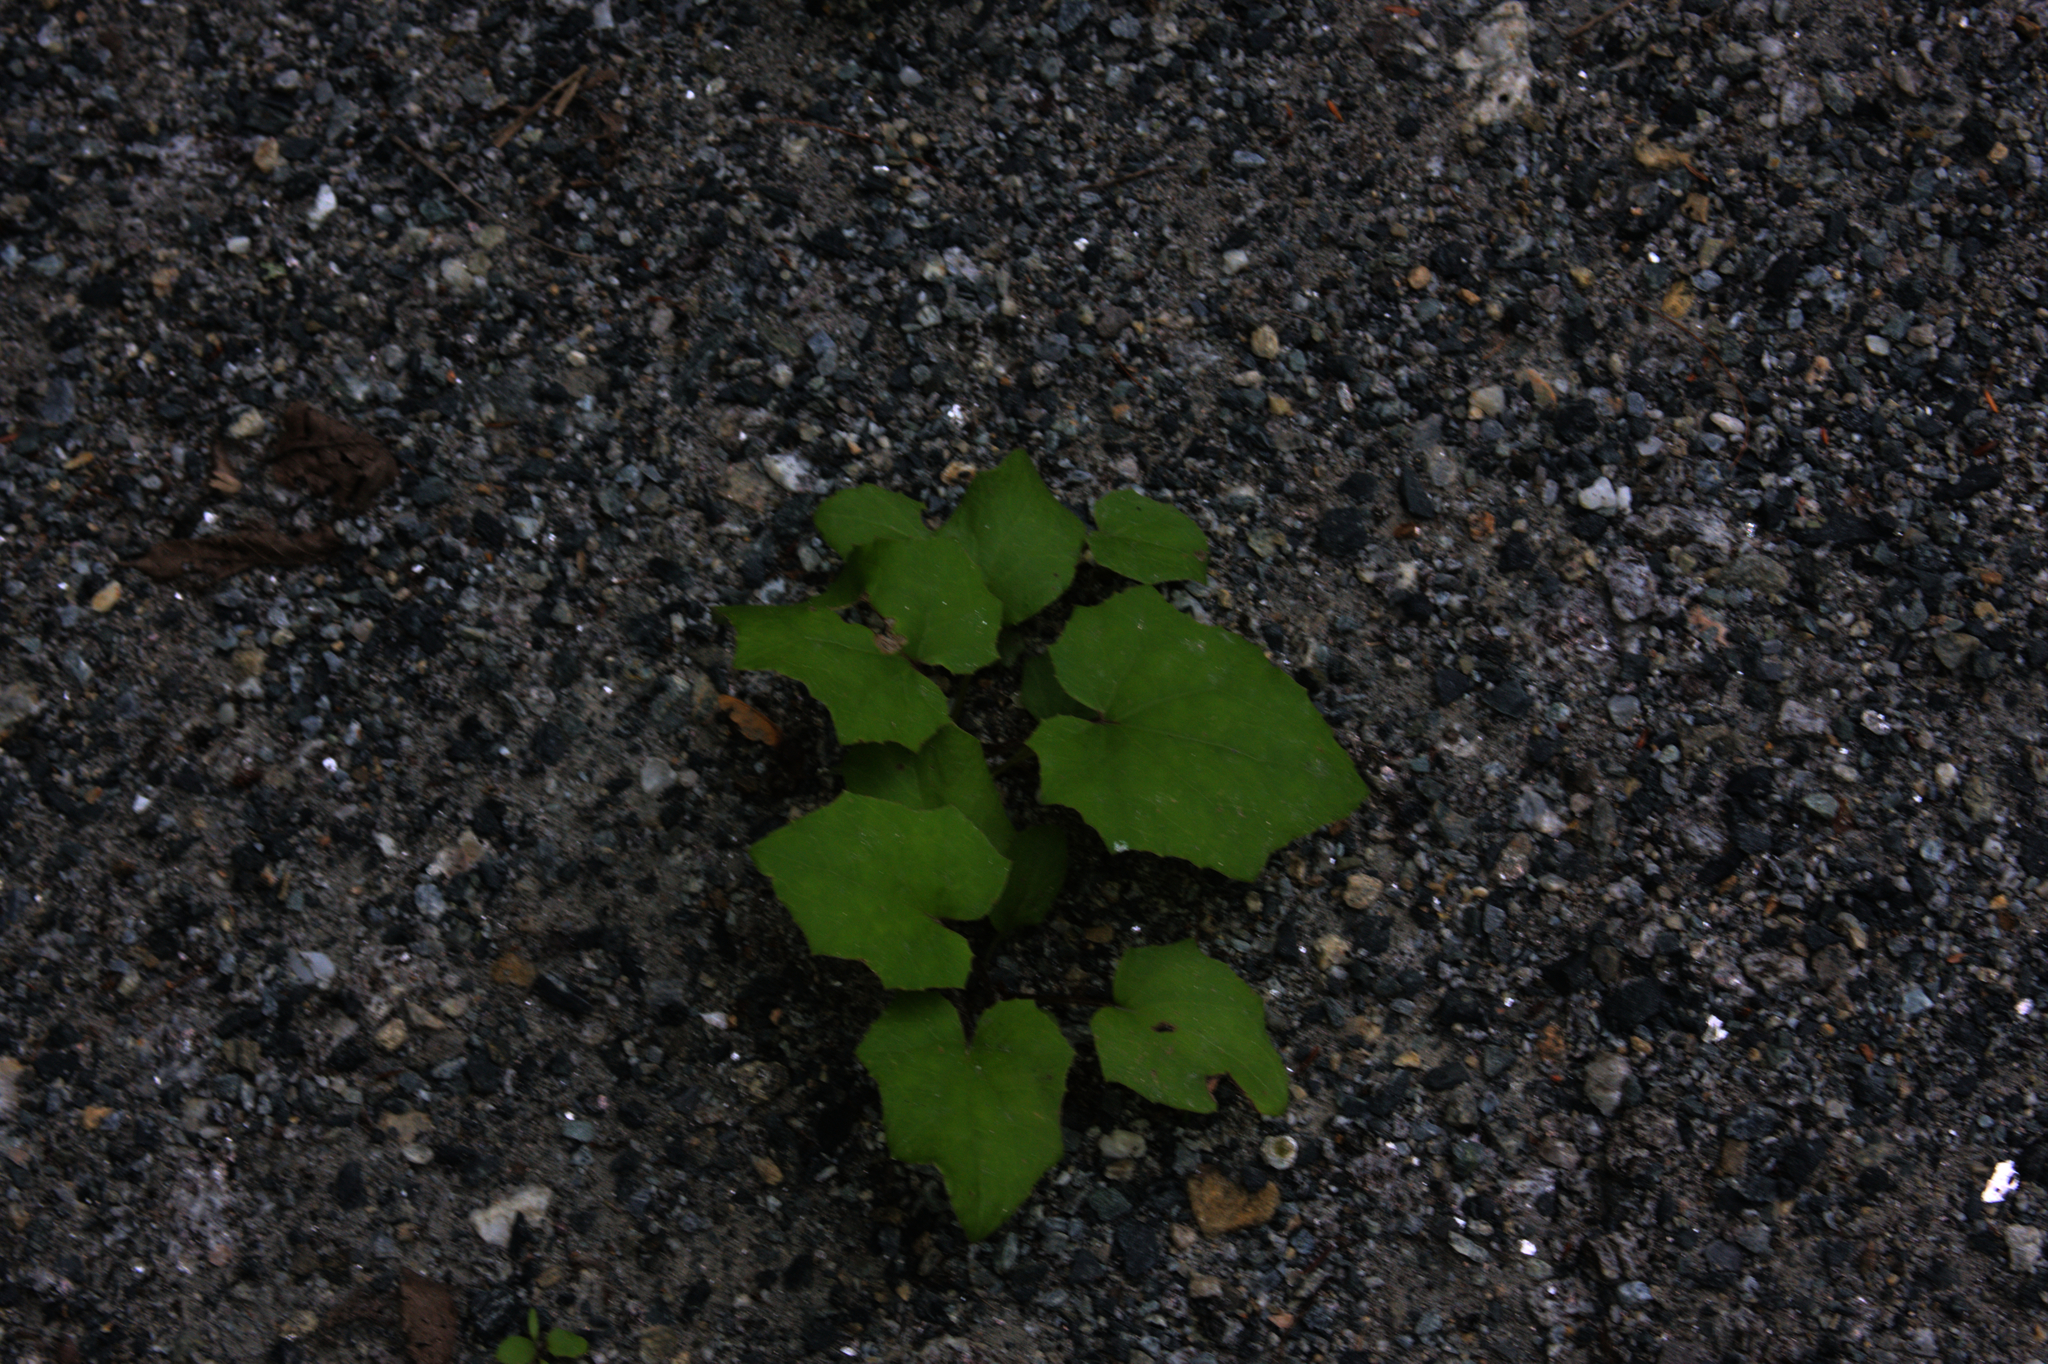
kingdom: Plantae
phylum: Tracheophyta
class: Magnoliopsida
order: Asterales
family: Asteraceae
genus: Tussilago
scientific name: Tussilago farfara
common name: Coltsfoot
